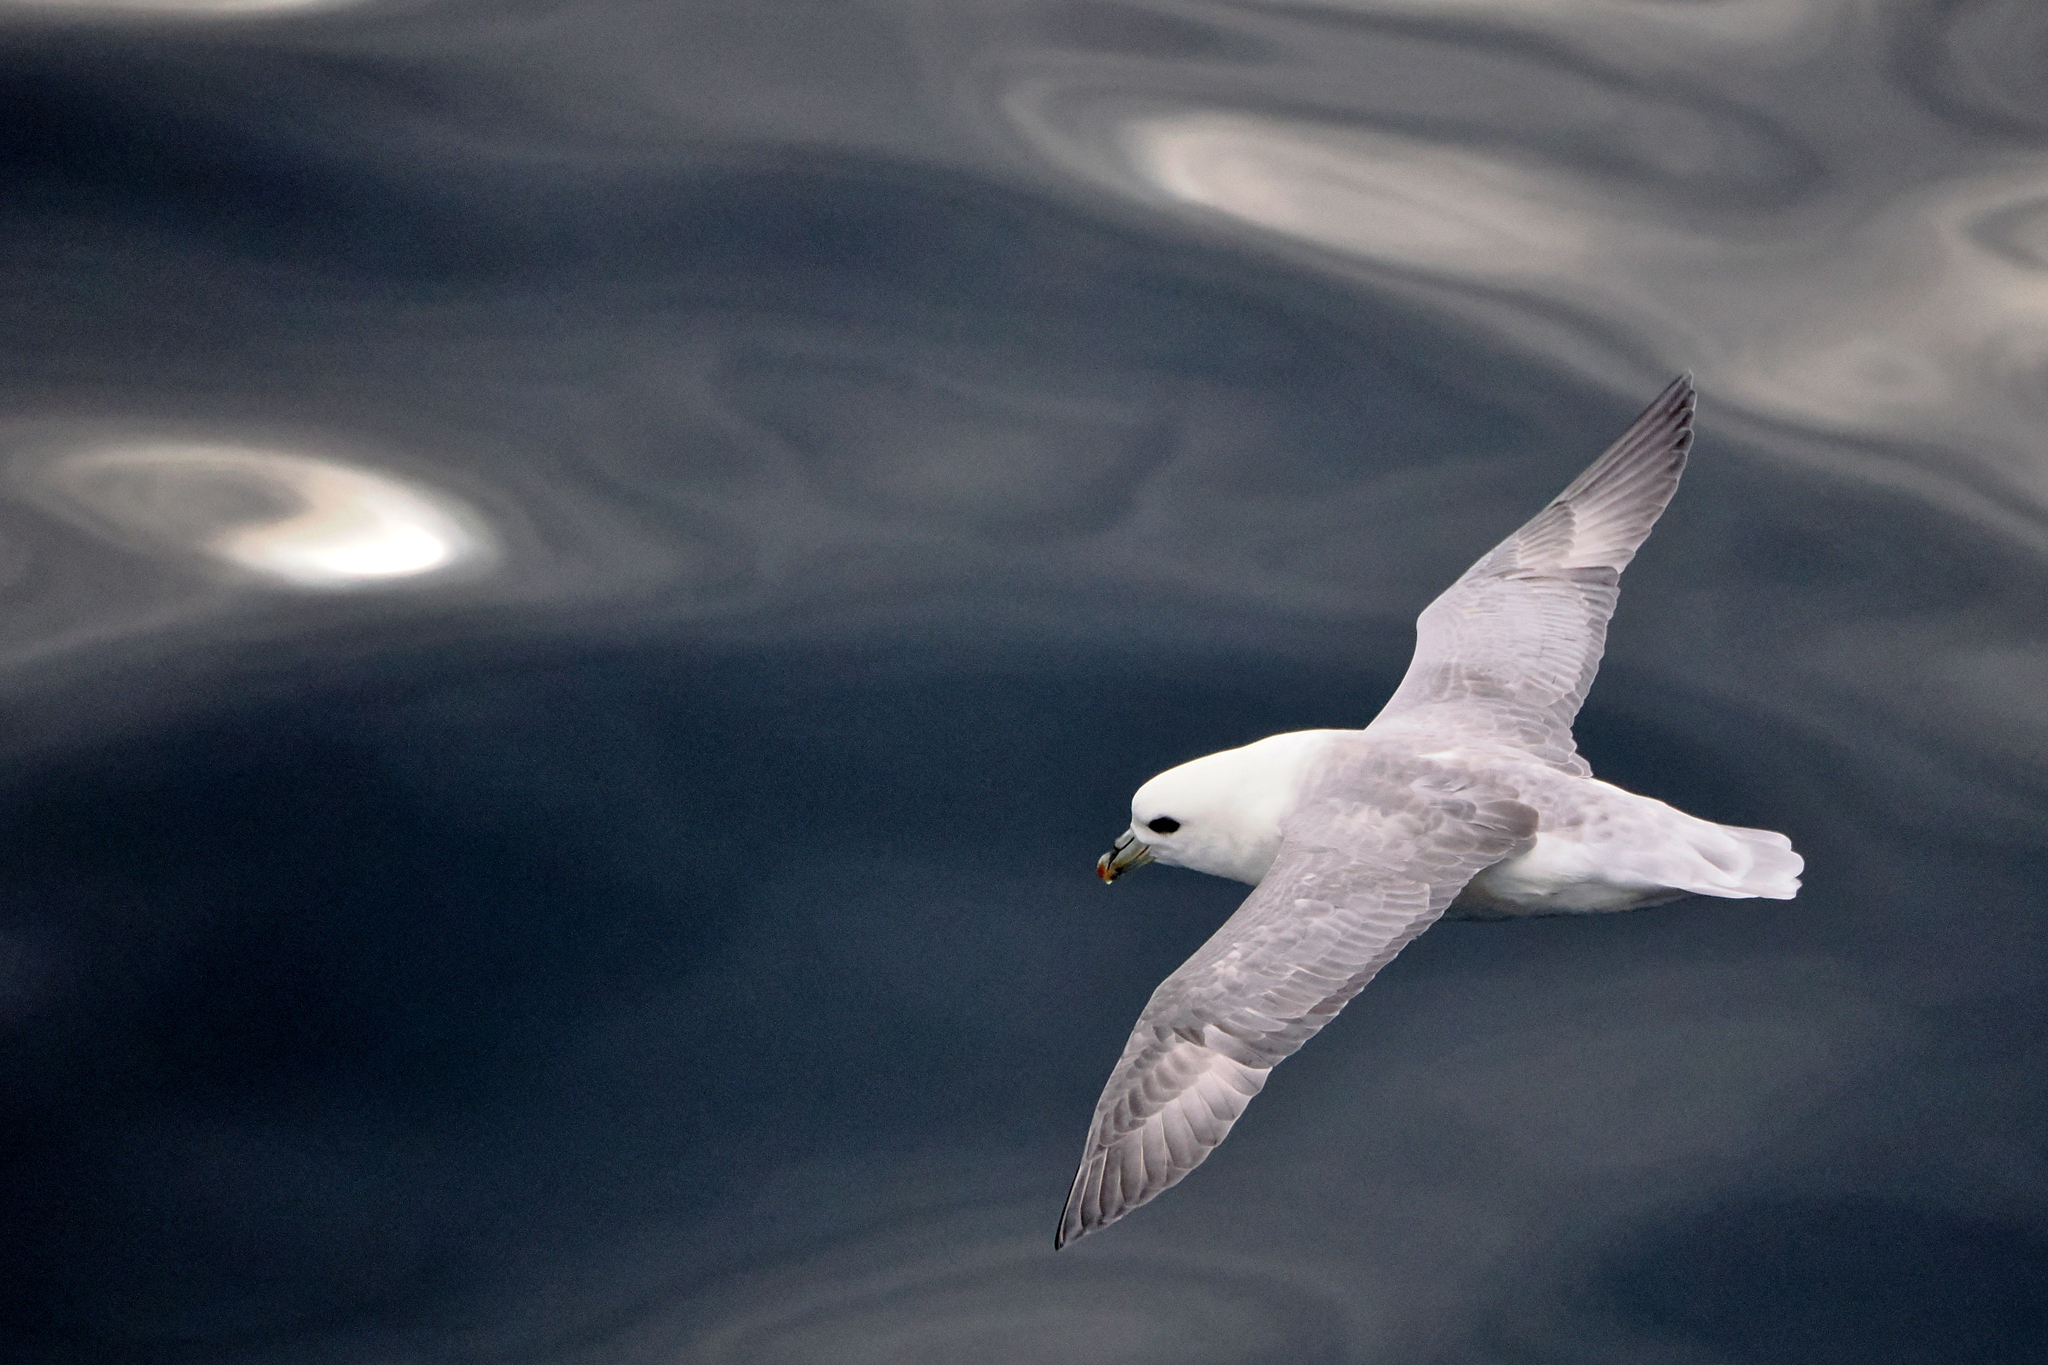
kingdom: Animalia
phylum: Chordata
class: Aves
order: Procellariiformes
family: Procellariidae
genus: Fulmarus
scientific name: Fulmarus glacialis
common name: Northern fulmar
